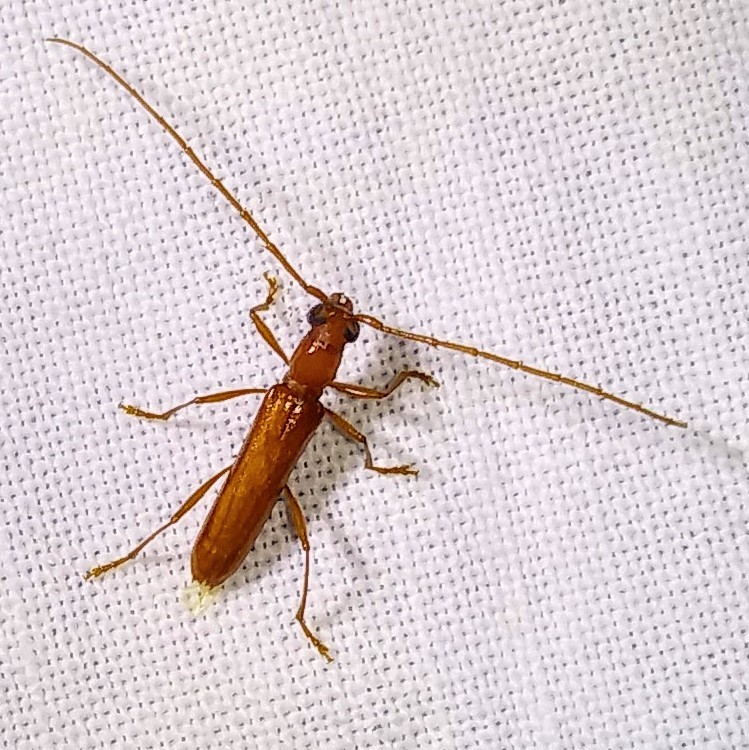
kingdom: Animalia
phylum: Arthropoda
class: Insecta
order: Coleoptera
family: Cerambycidae
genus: Psyrassa
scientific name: Psyrassa unicolor
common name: Branch pruner
